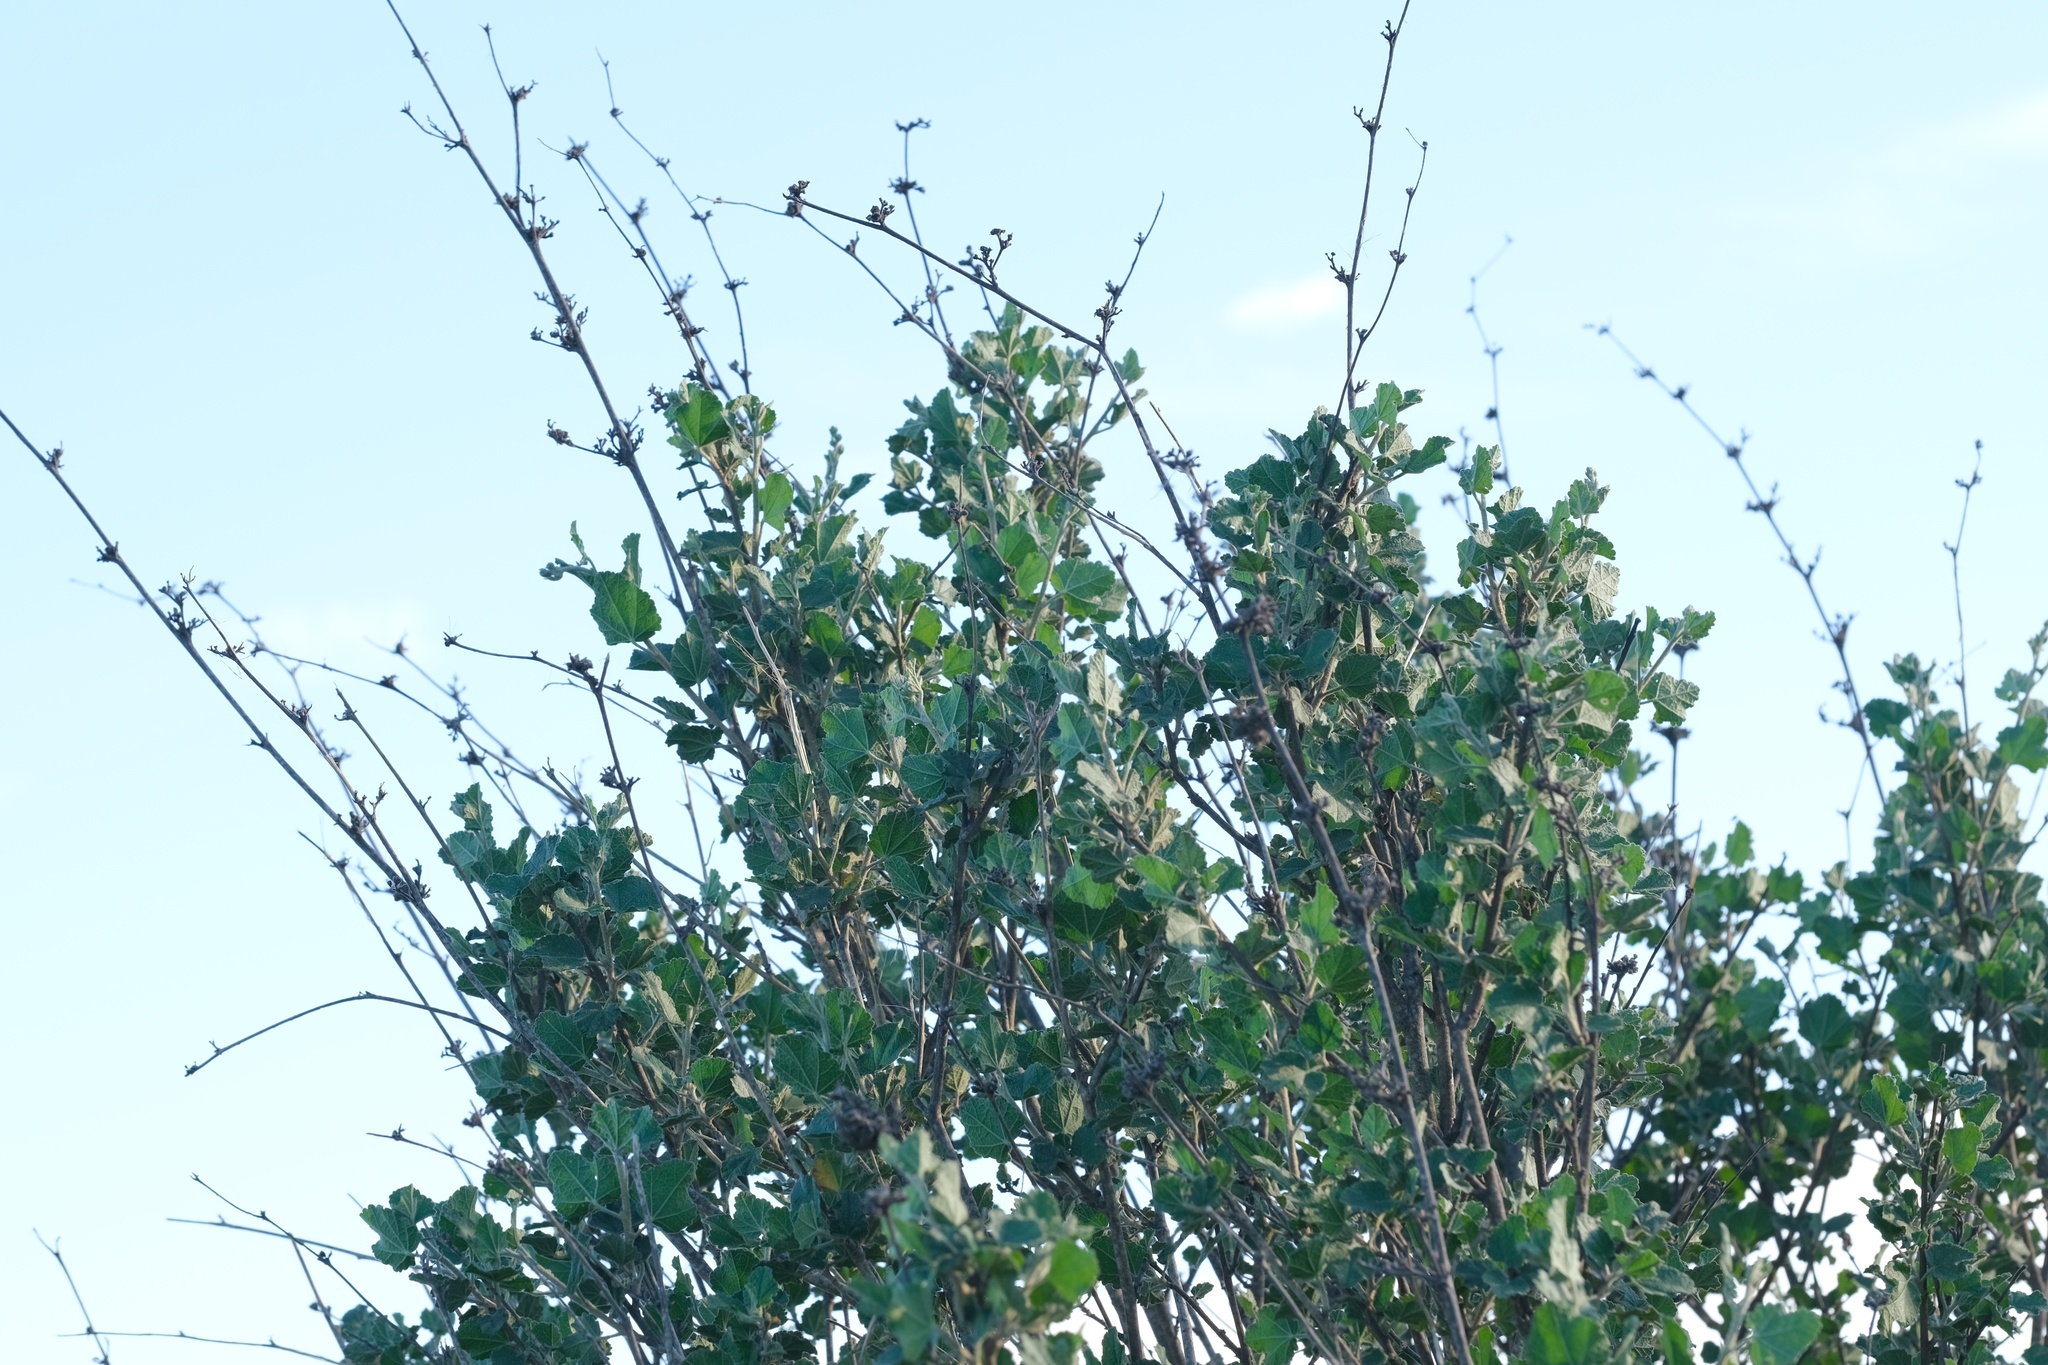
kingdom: Plantae
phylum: Tracheophyta
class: Magnoliopsida
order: Malvales
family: Malvaceae
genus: Malacothamnus
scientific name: Malacothamnus fasciculatus
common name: Sant cruz island bush-mallow
